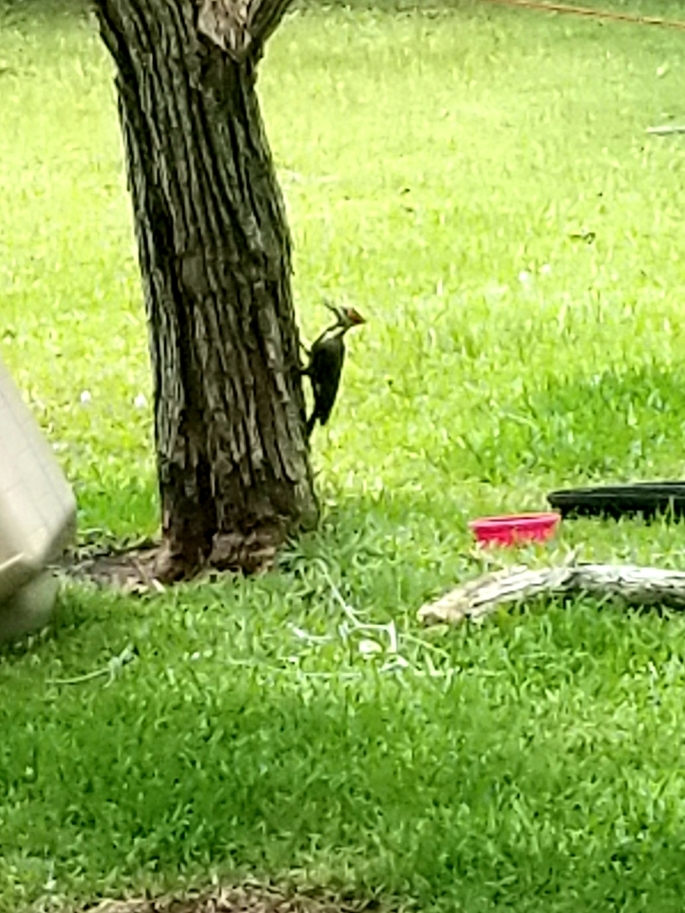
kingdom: Animalia
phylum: Chordata
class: Aves
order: Piciformes
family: Picidae
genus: Dryocopus
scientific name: Dryocopus pileatus
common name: Pileated woodpecker
